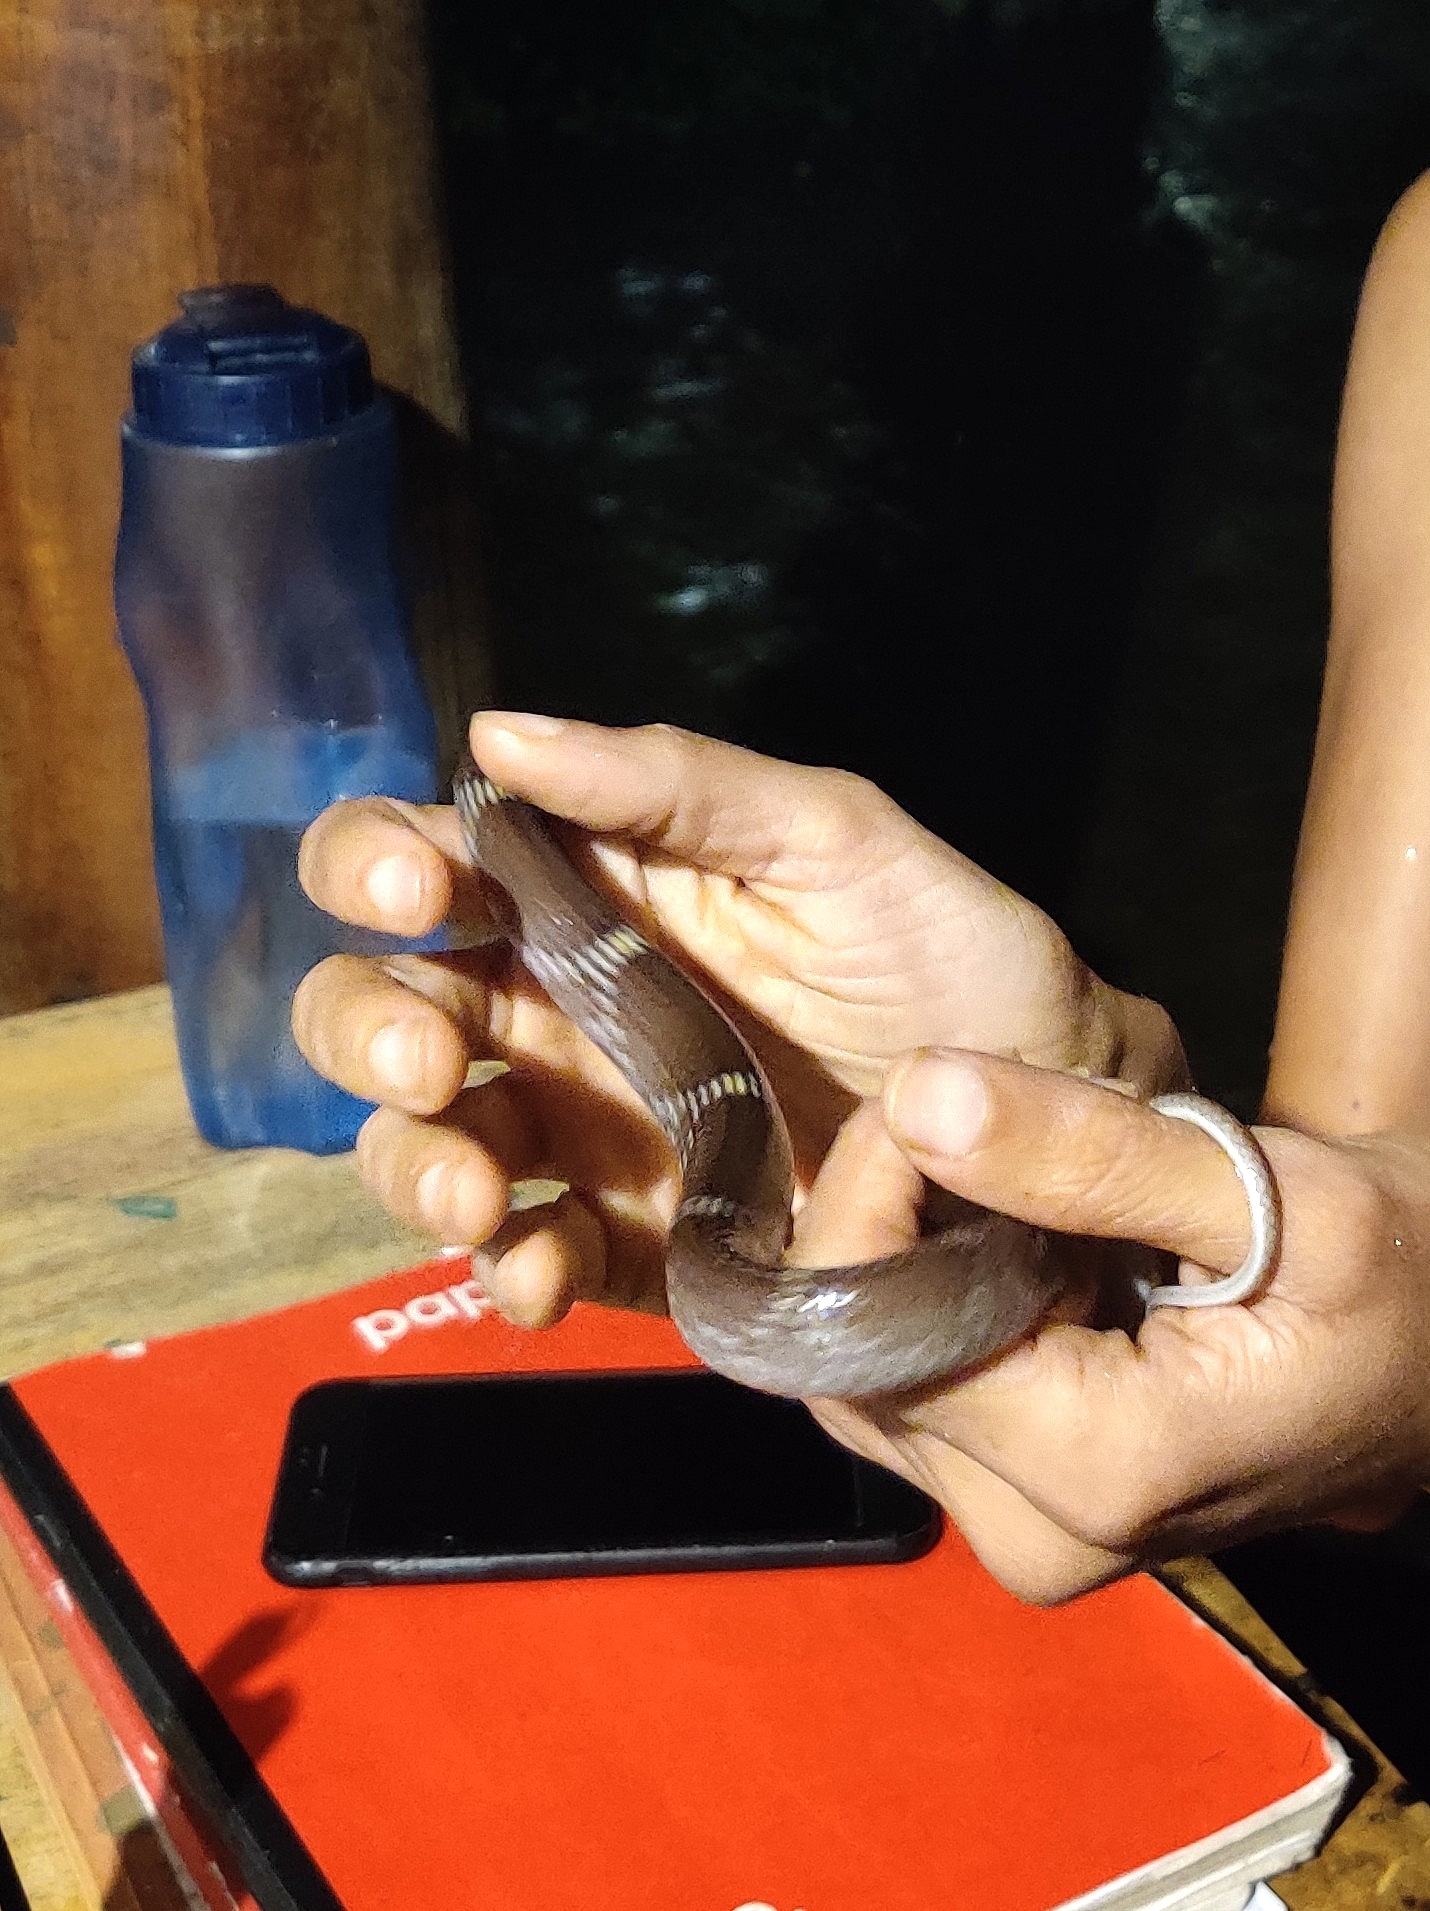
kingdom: Animalia
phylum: Chordata
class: Squamata
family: Colubridae
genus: Lycodon
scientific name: Lycodon aulicus
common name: Common wolf snake
